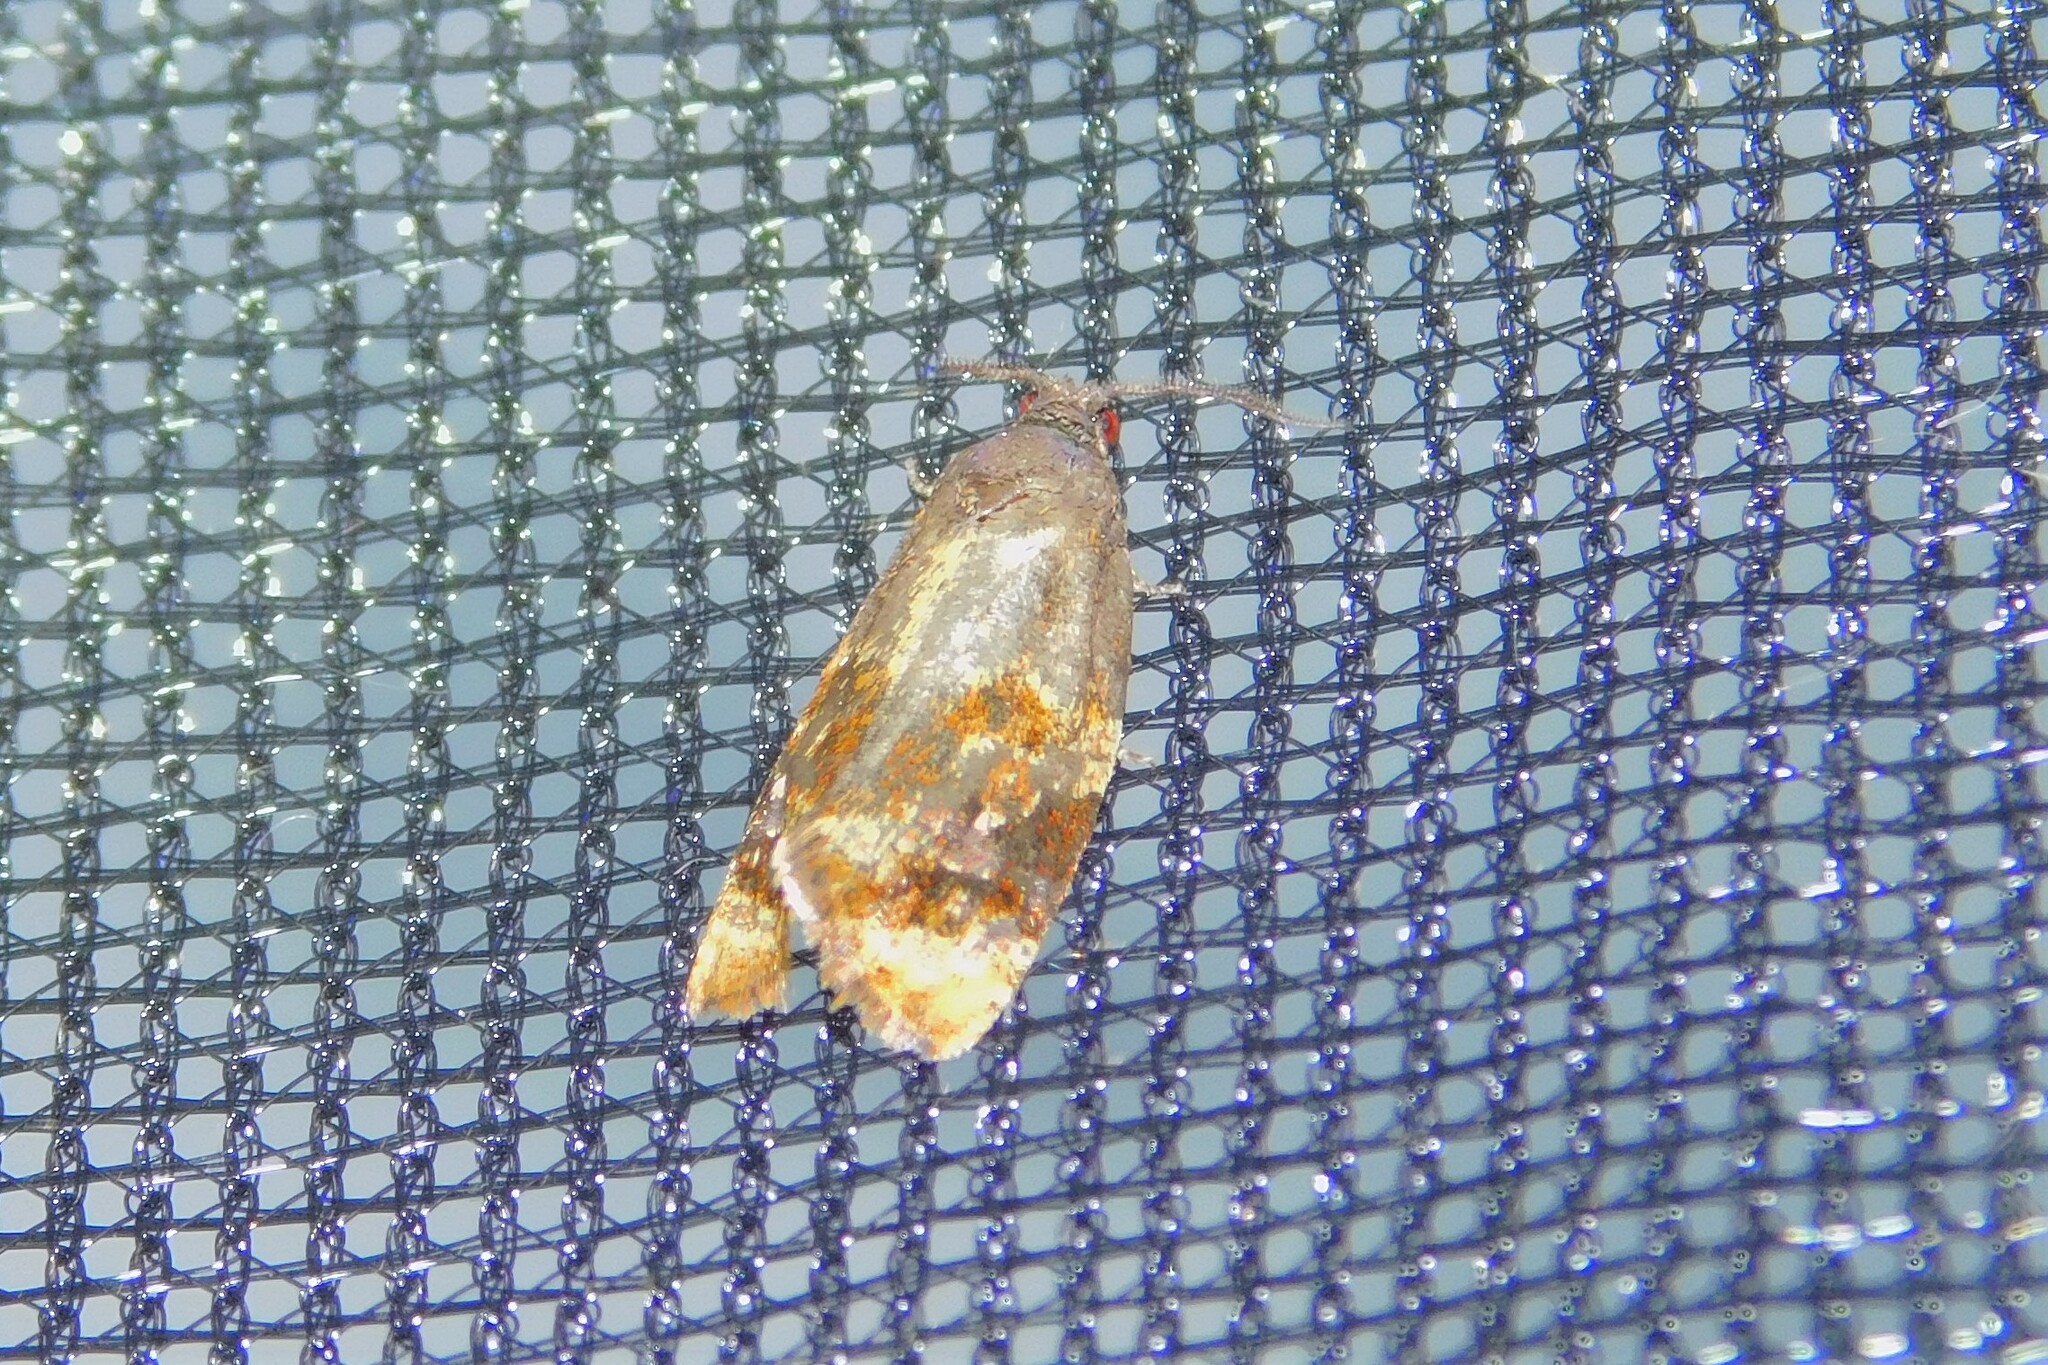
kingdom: Animalia
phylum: Arthropoda
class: Insecta
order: Lepidoptera
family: Tortricidae
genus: Ditula
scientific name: Ditula angustiorana
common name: Red-barred tortrix
